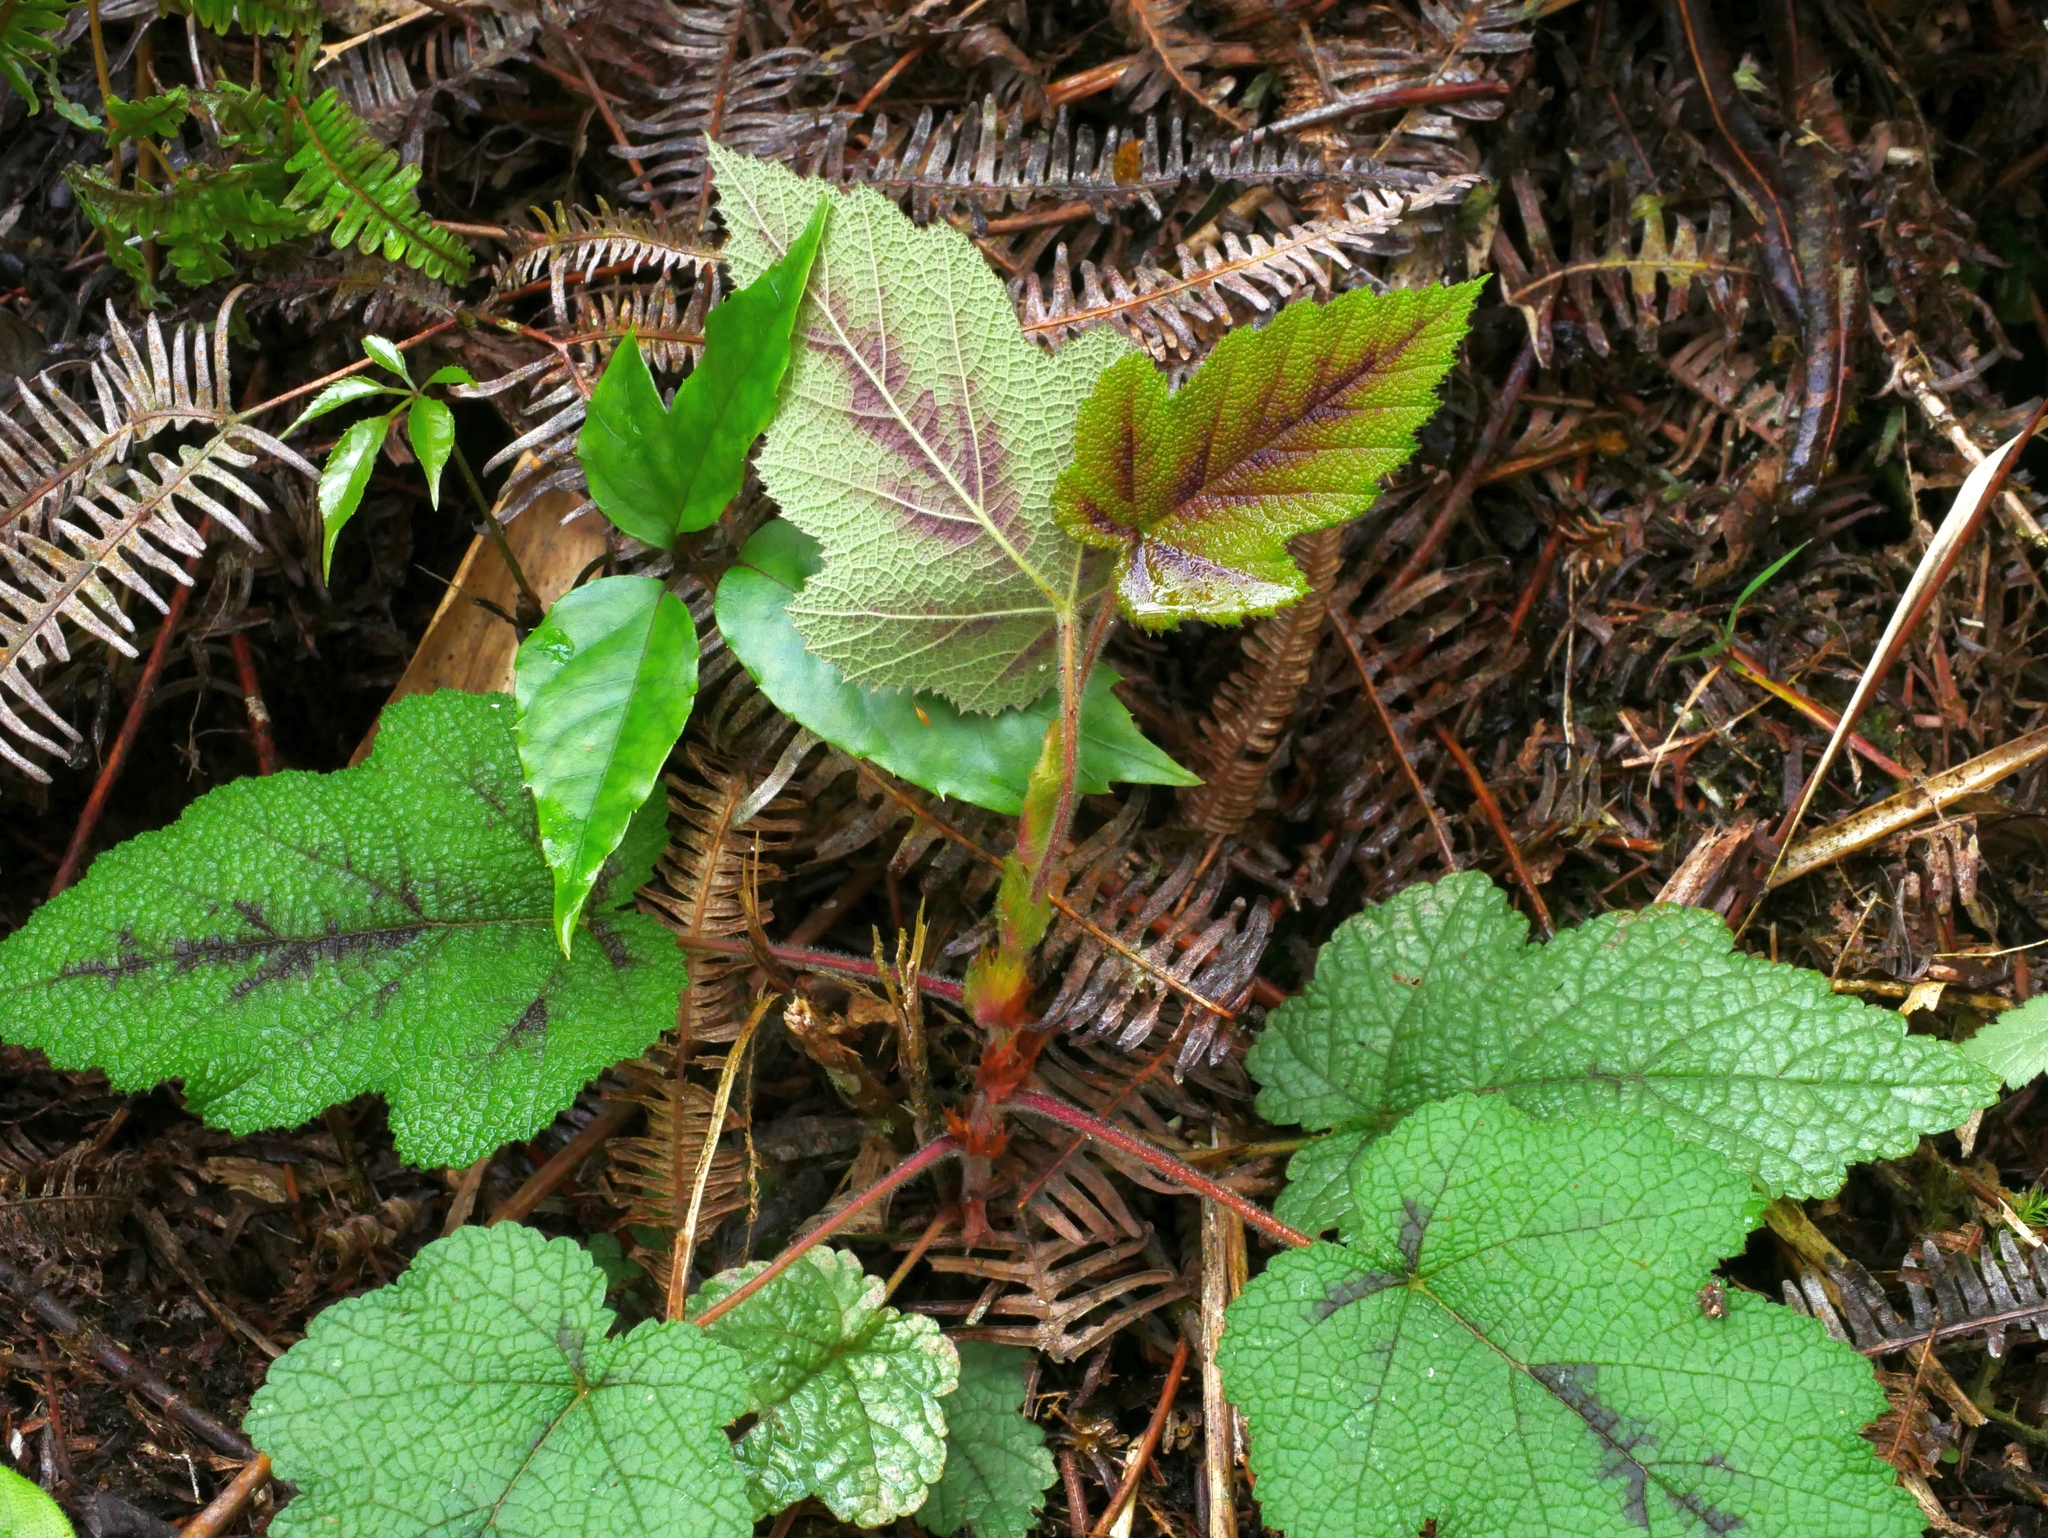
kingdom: Plantae
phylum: Tracheophyta
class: Magnoliopsida
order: Rosales
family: Rosaceae
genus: Rubus
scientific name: Rubus formosensis
